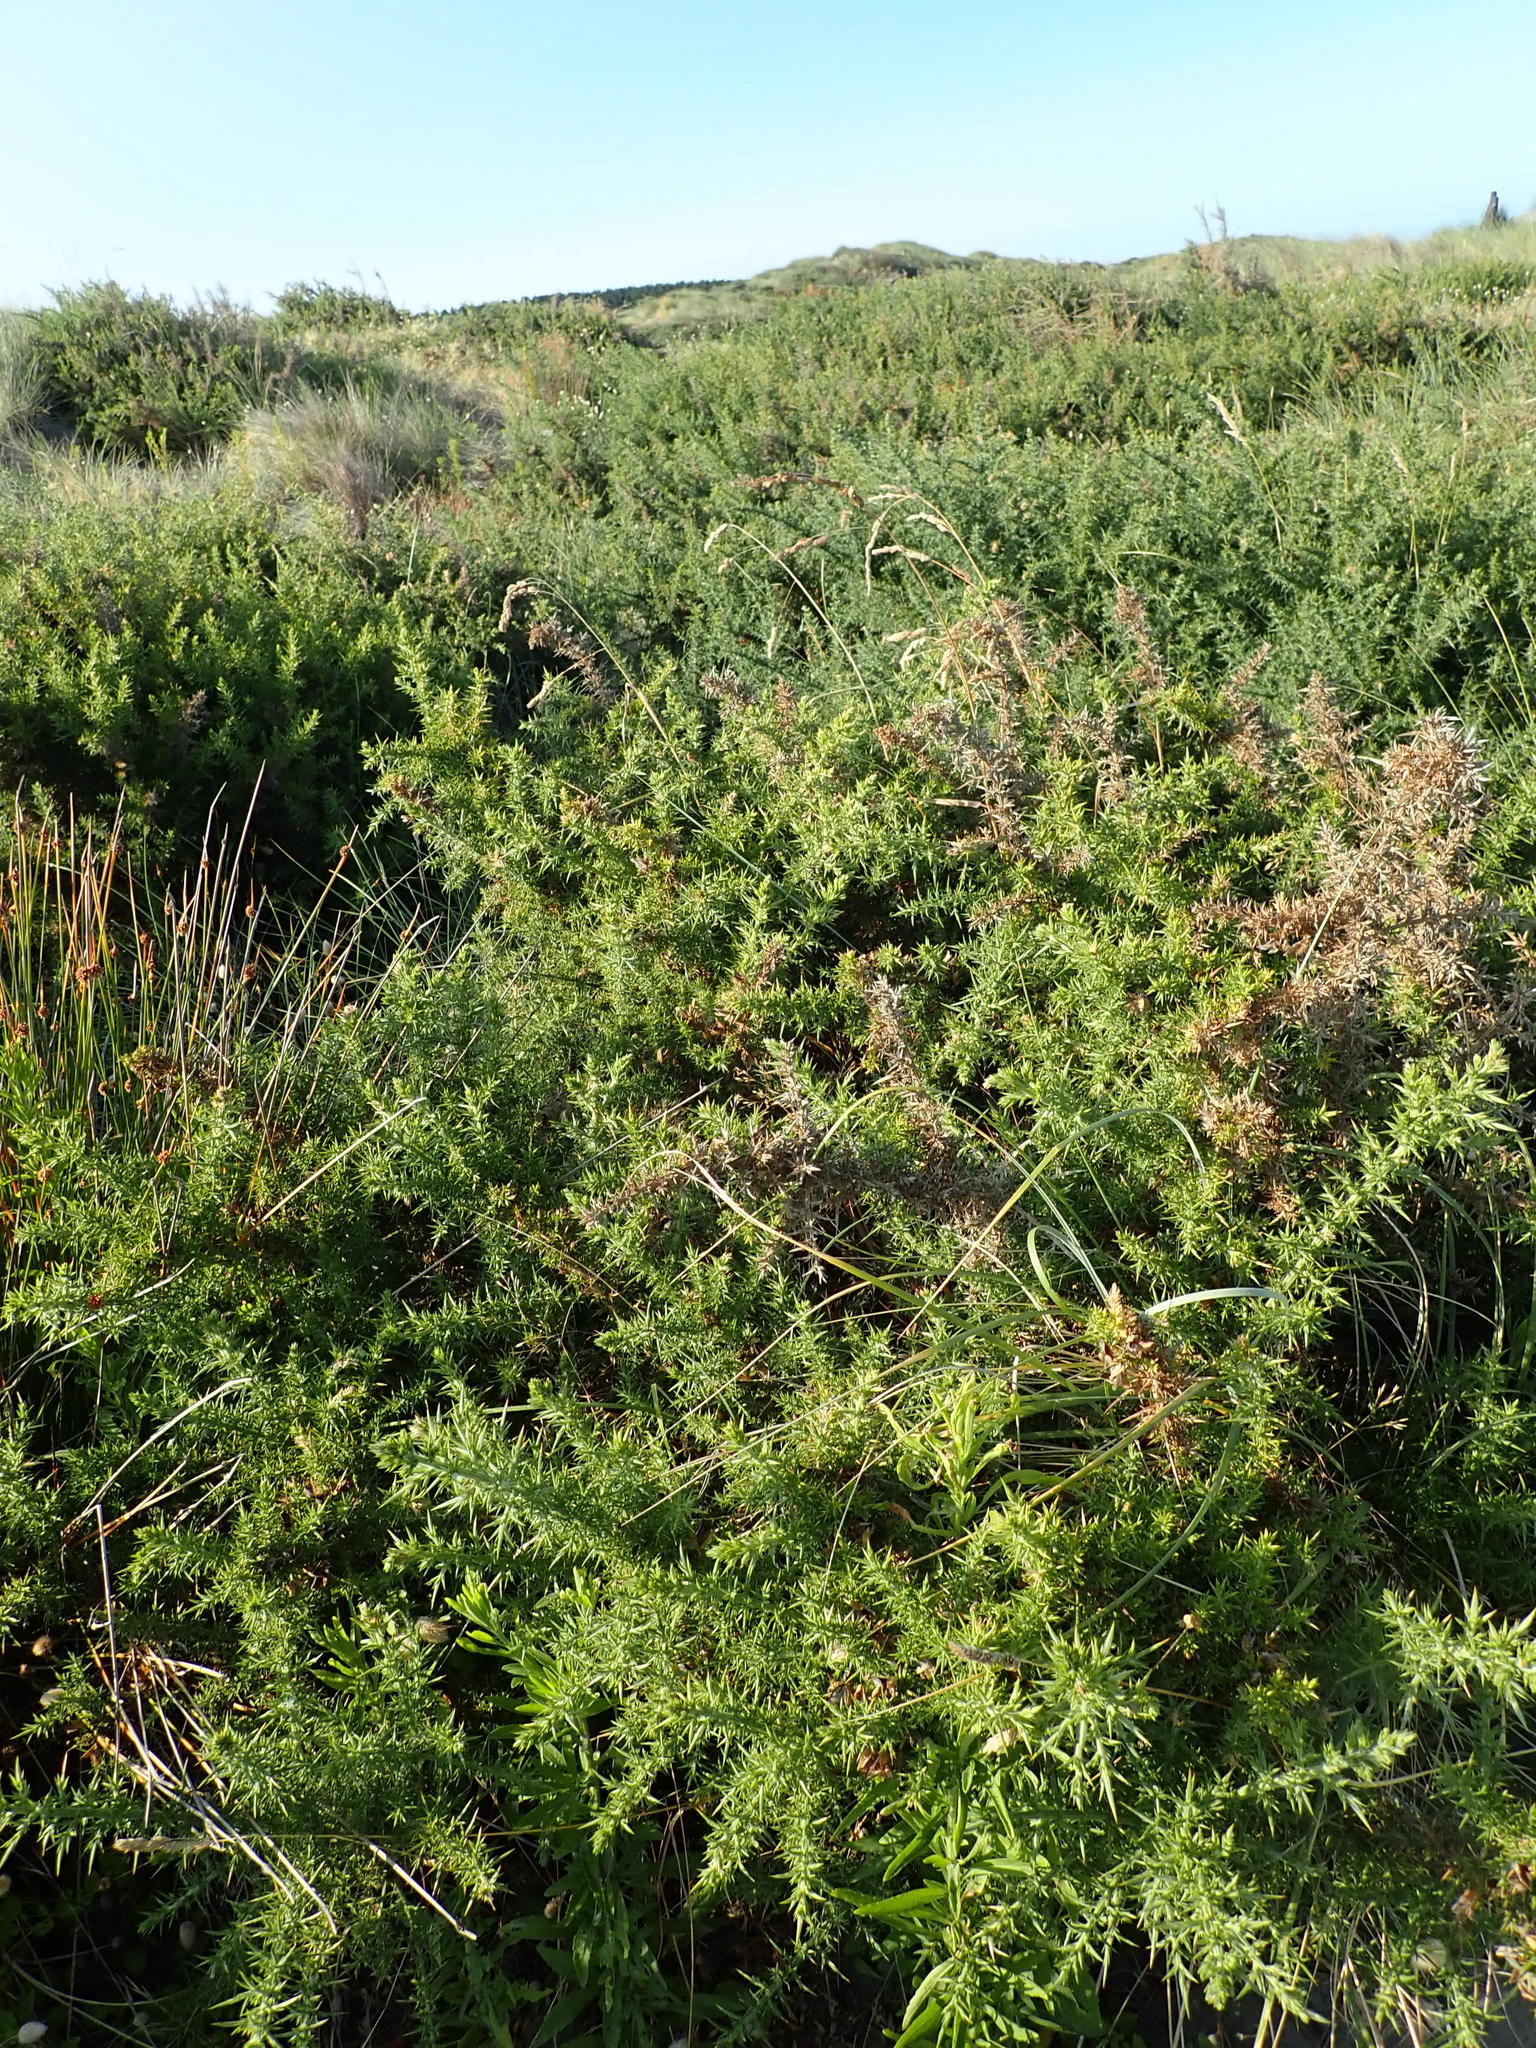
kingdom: Plantae
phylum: Tracheophyta
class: Magnoliopsida
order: Fabales
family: Fabaceae
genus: Ulex
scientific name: Ulex europaeus
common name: Common gorse
